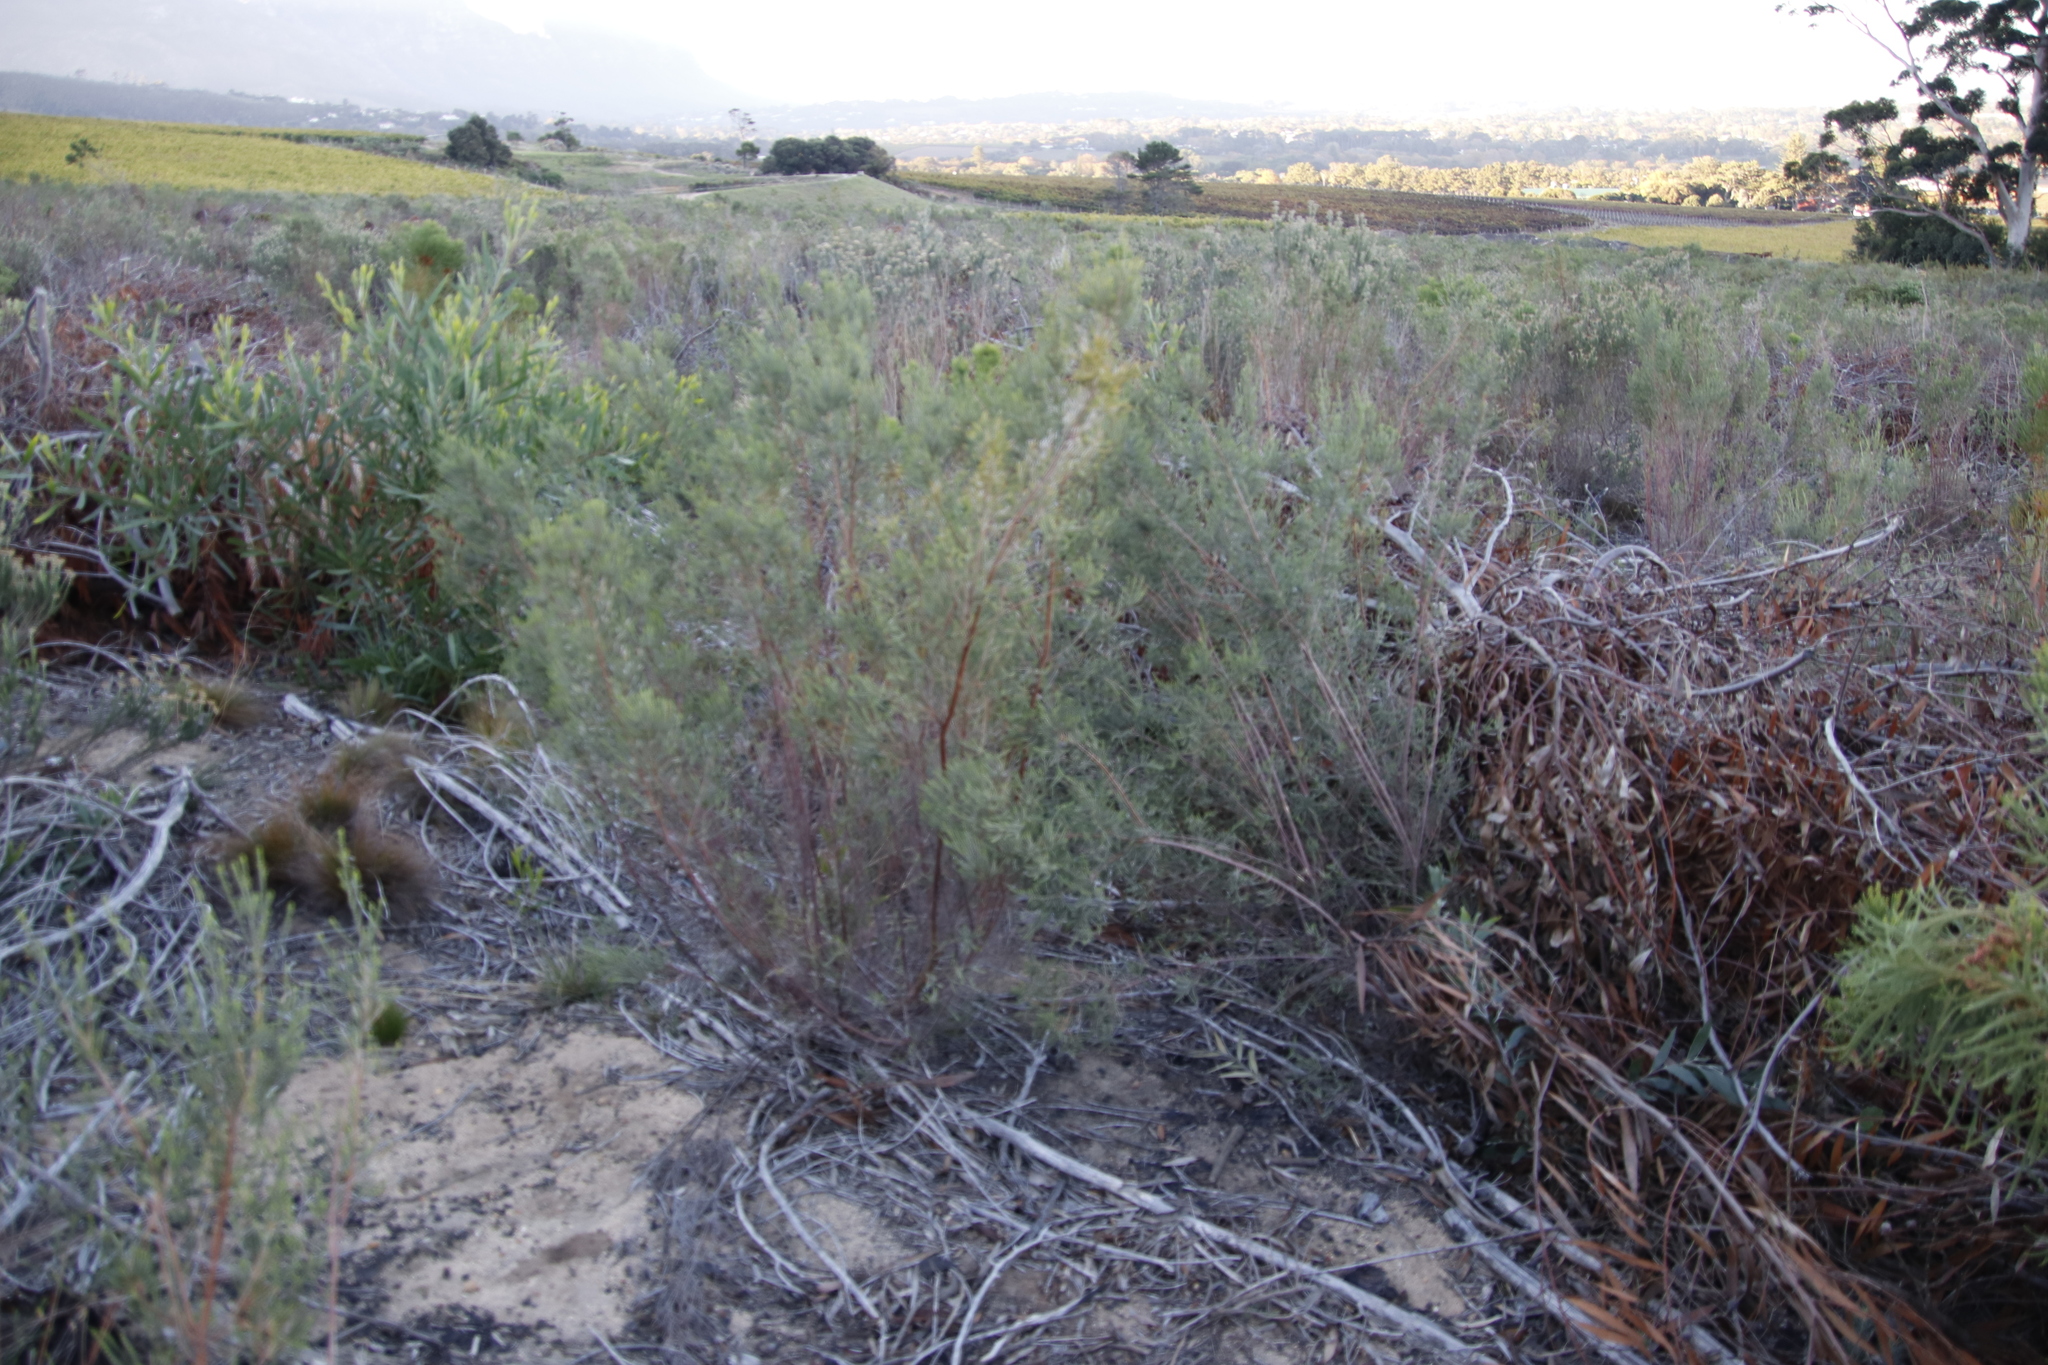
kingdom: Plantae
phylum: Tracheophyta
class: Magnoliopsida
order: Malvales
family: Thymelaeaceae
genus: Passerina
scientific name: Passerina corymbosa
